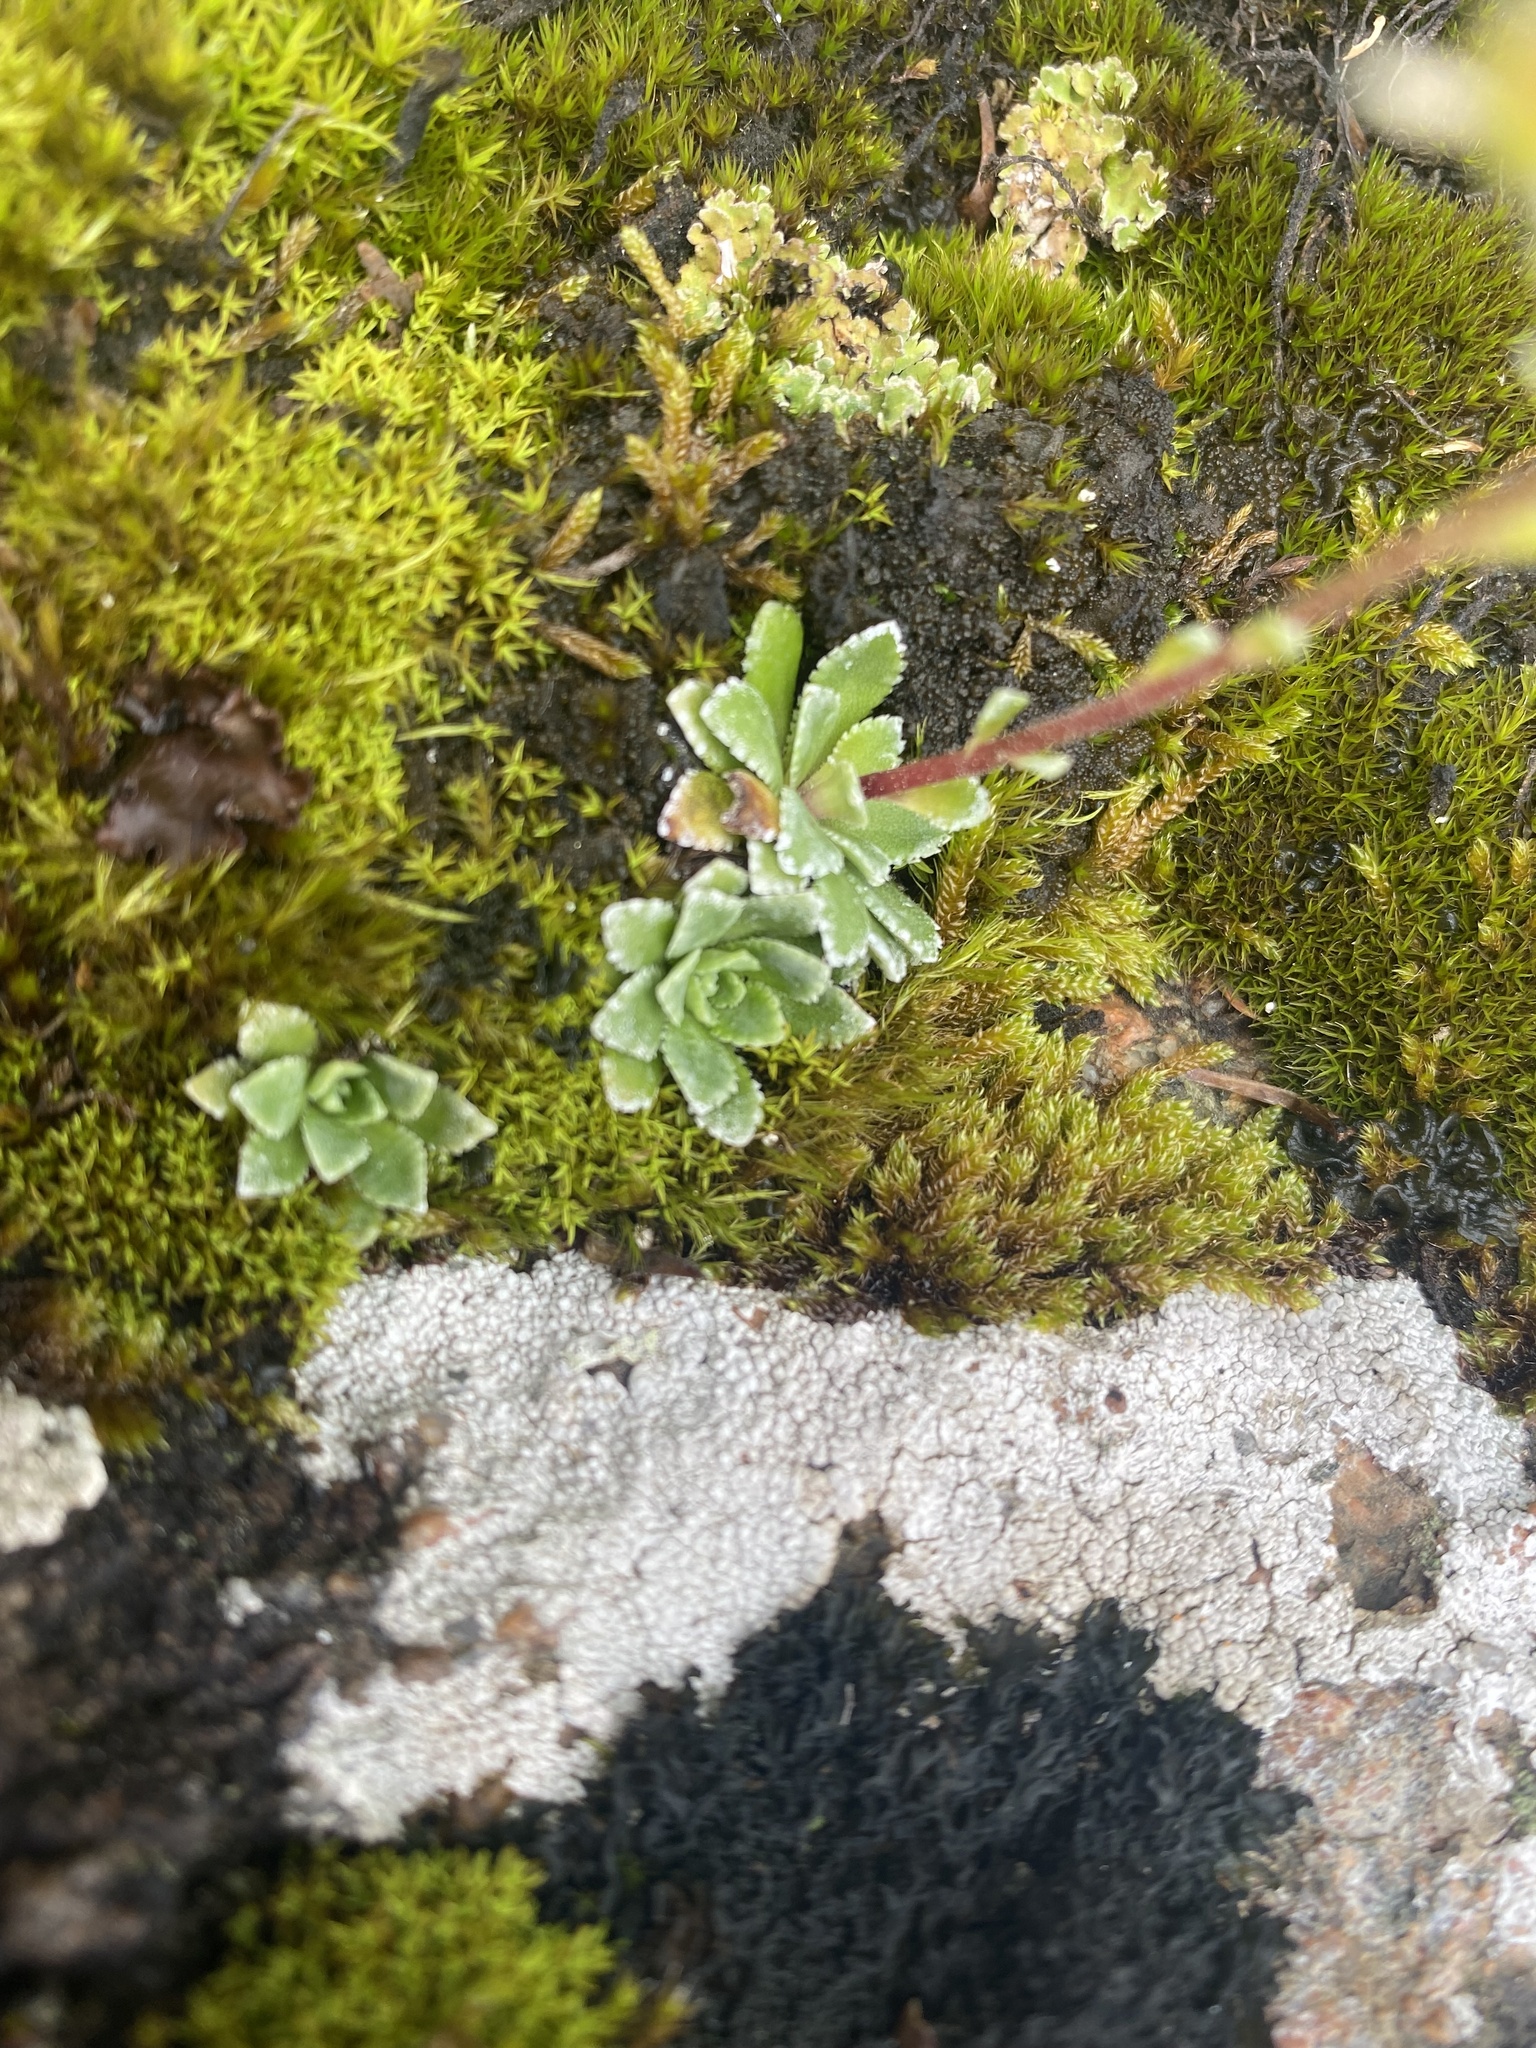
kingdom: Plantae
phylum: Tracheophyta
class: Magnoliopsida
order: Saxifragales
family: Saxifragaceae
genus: Saxifraga
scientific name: Saxifraga paniculata
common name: Livelong saxifrage
